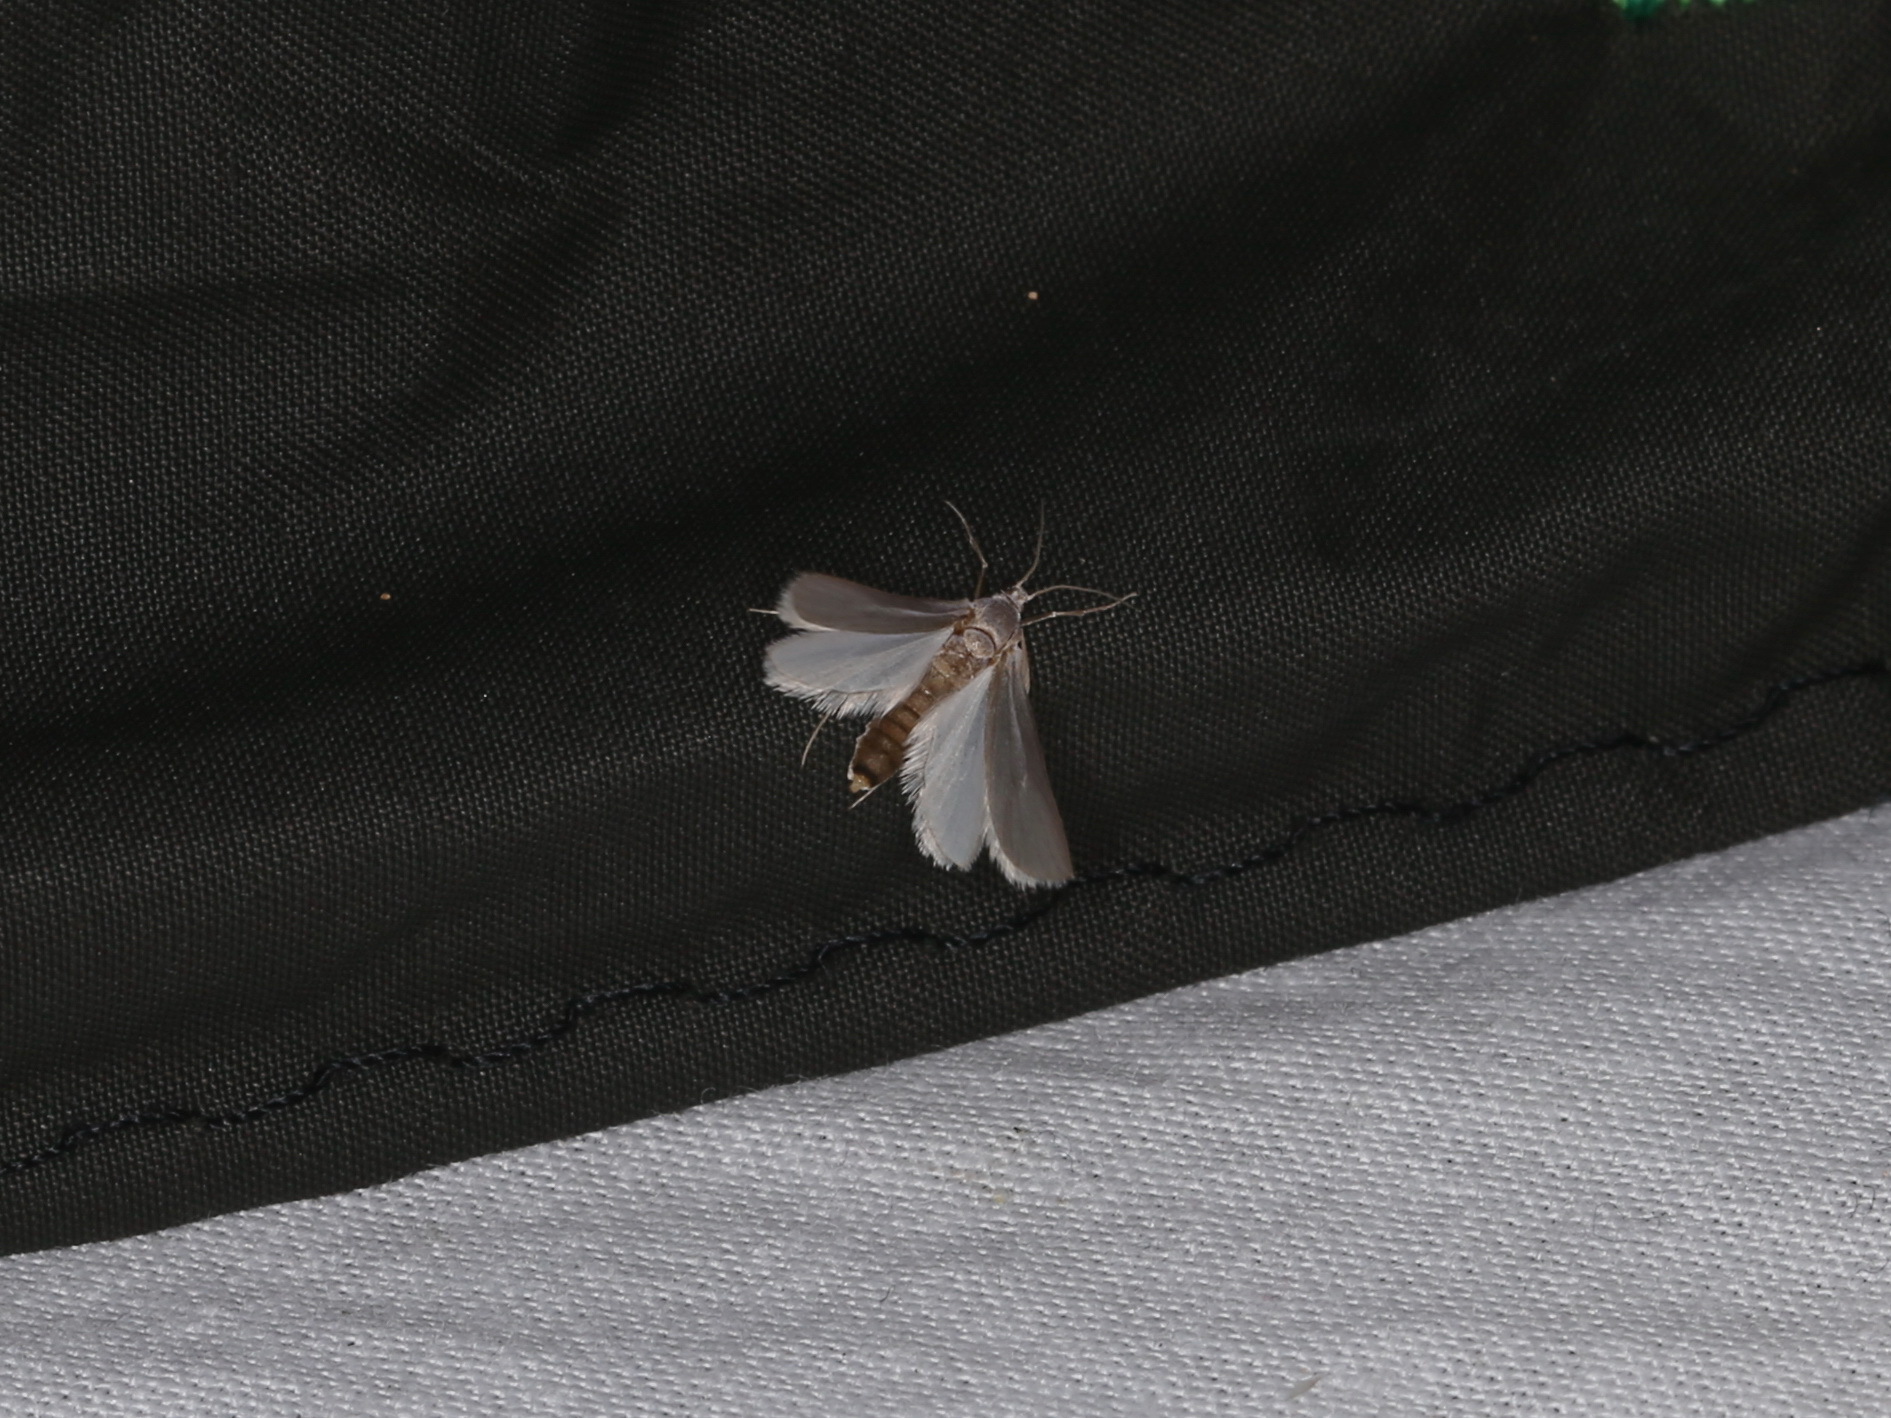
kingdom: Animalia
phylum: Arthropoda
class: Insecta
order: Lepidoptera
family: Crambidae
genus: Acentria
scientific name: Acentria ephemerella
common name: European water moth
